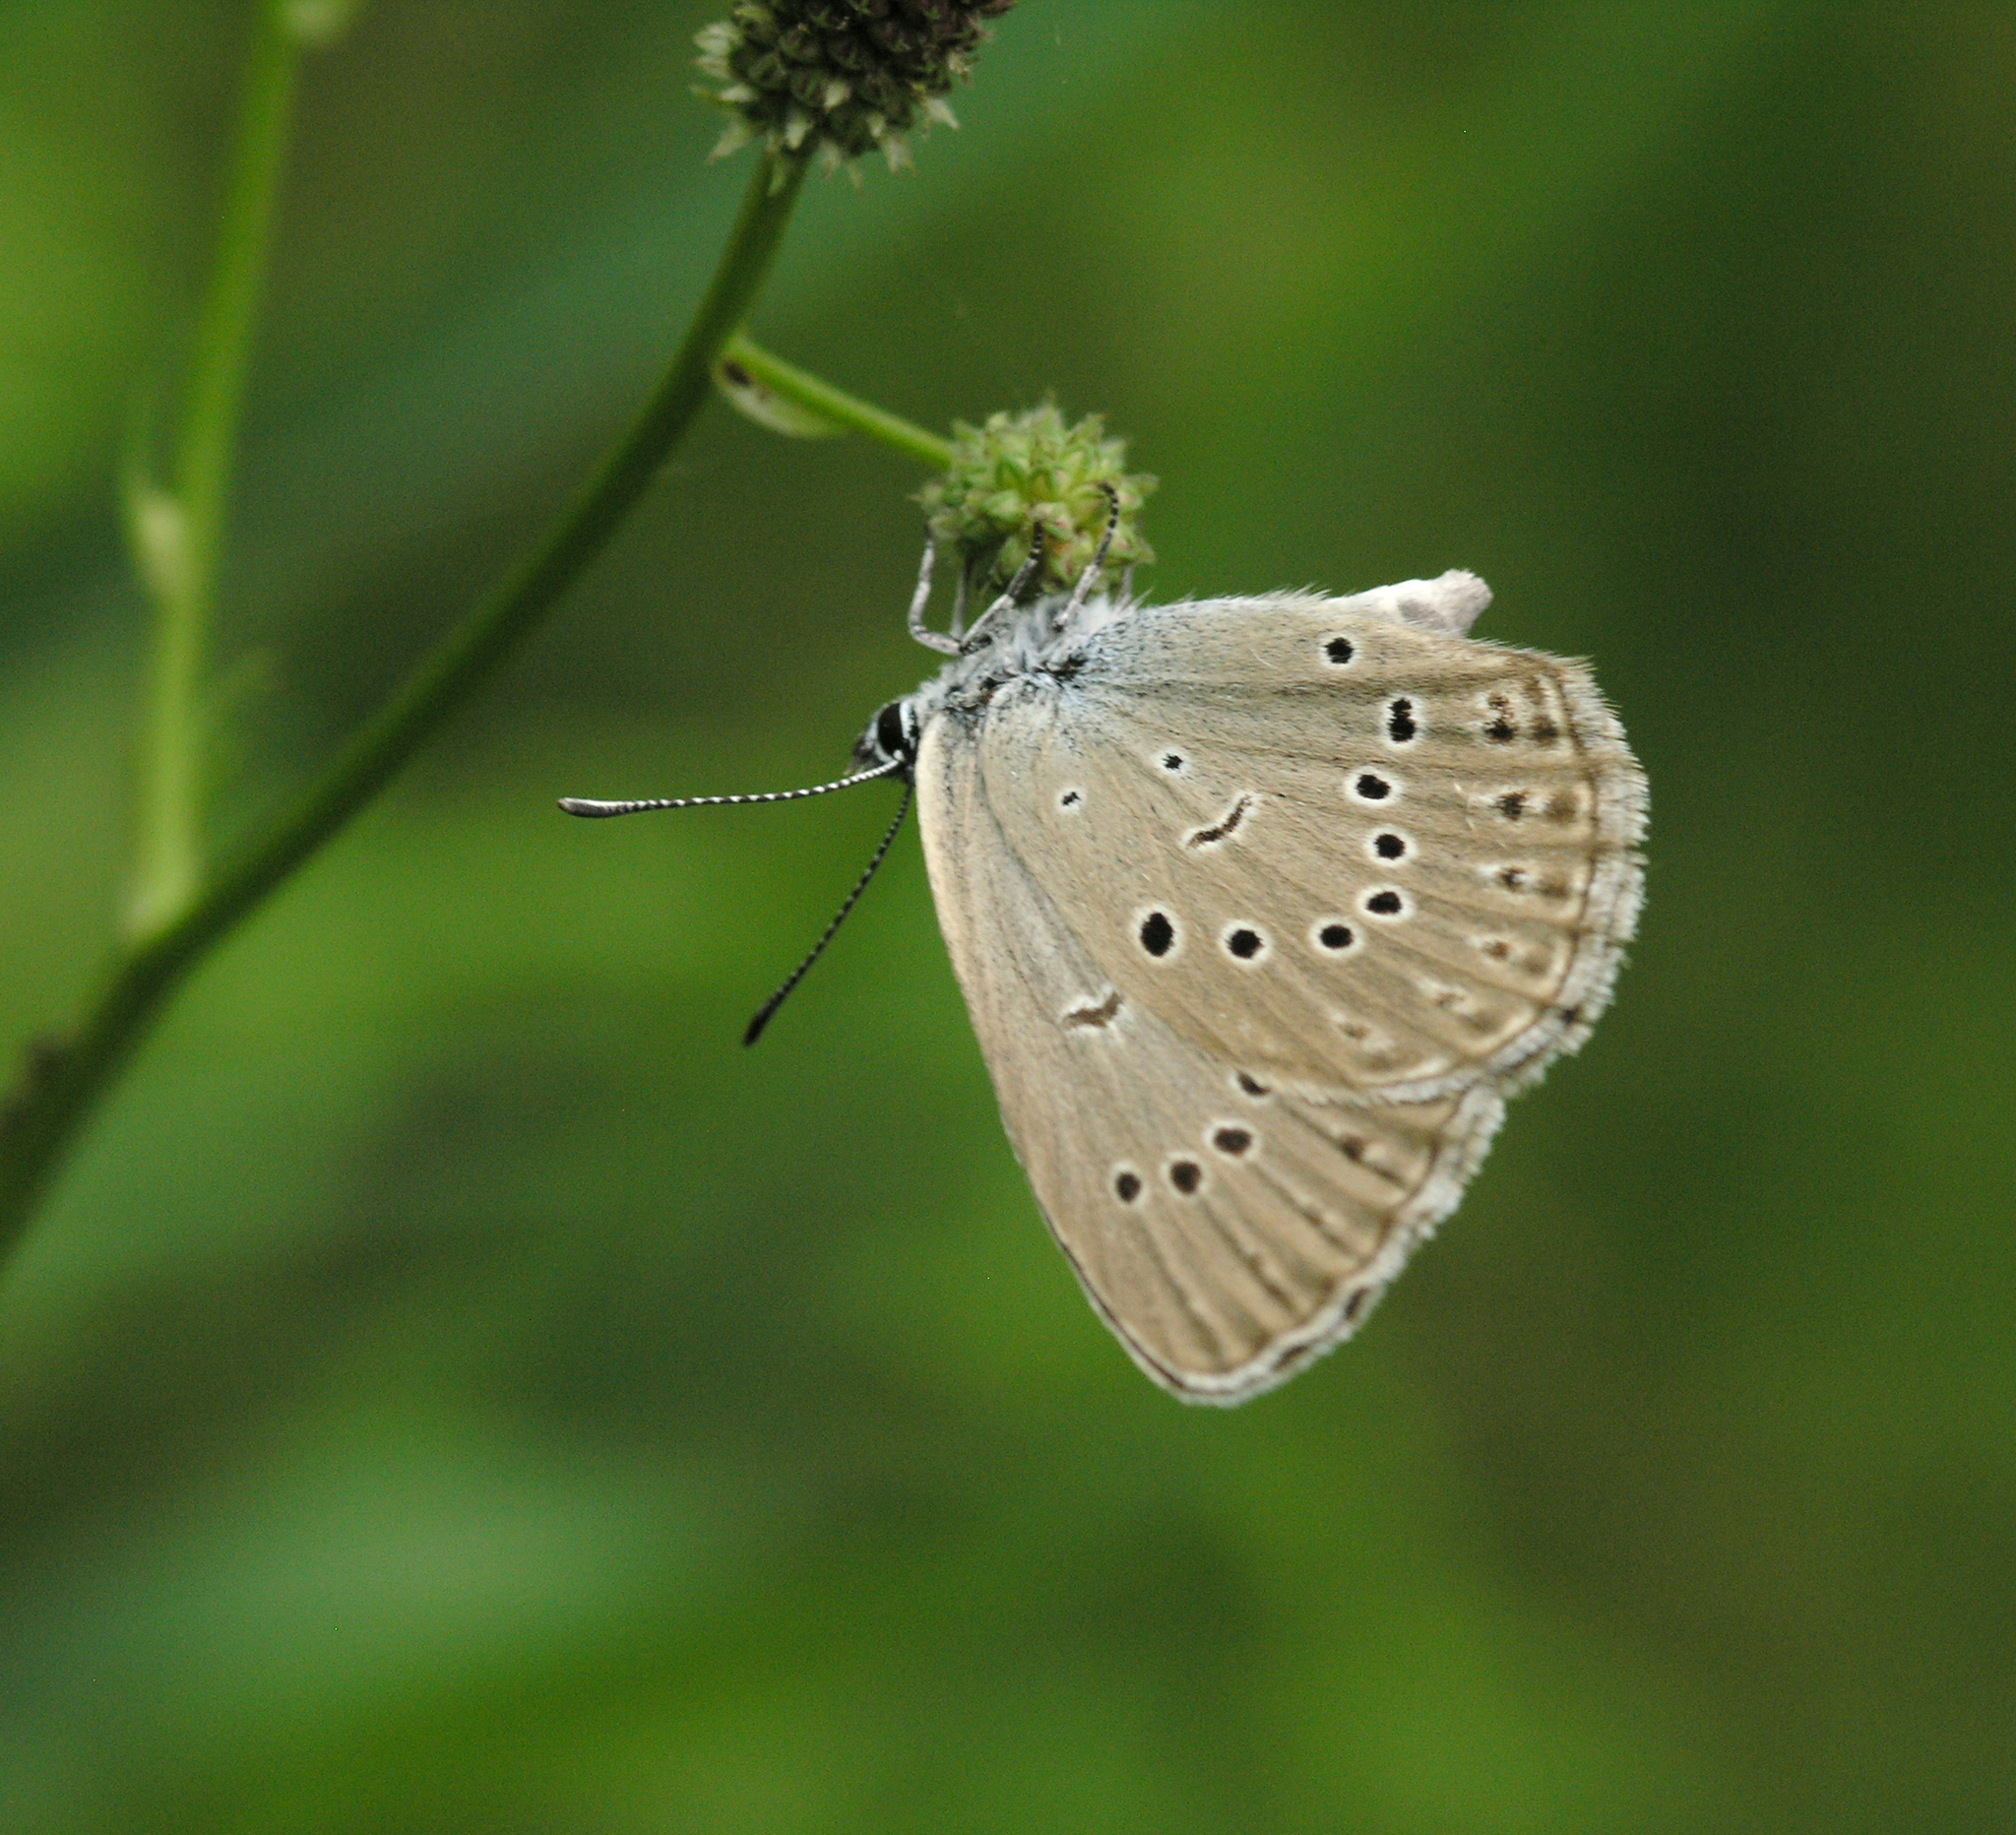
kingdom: Animalia
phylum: Arthropoda
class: Insecta
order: Lepidoptera
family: Lycaenidae
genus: Phengaris
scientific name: Phengaris teleius
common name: Scarce large blue
